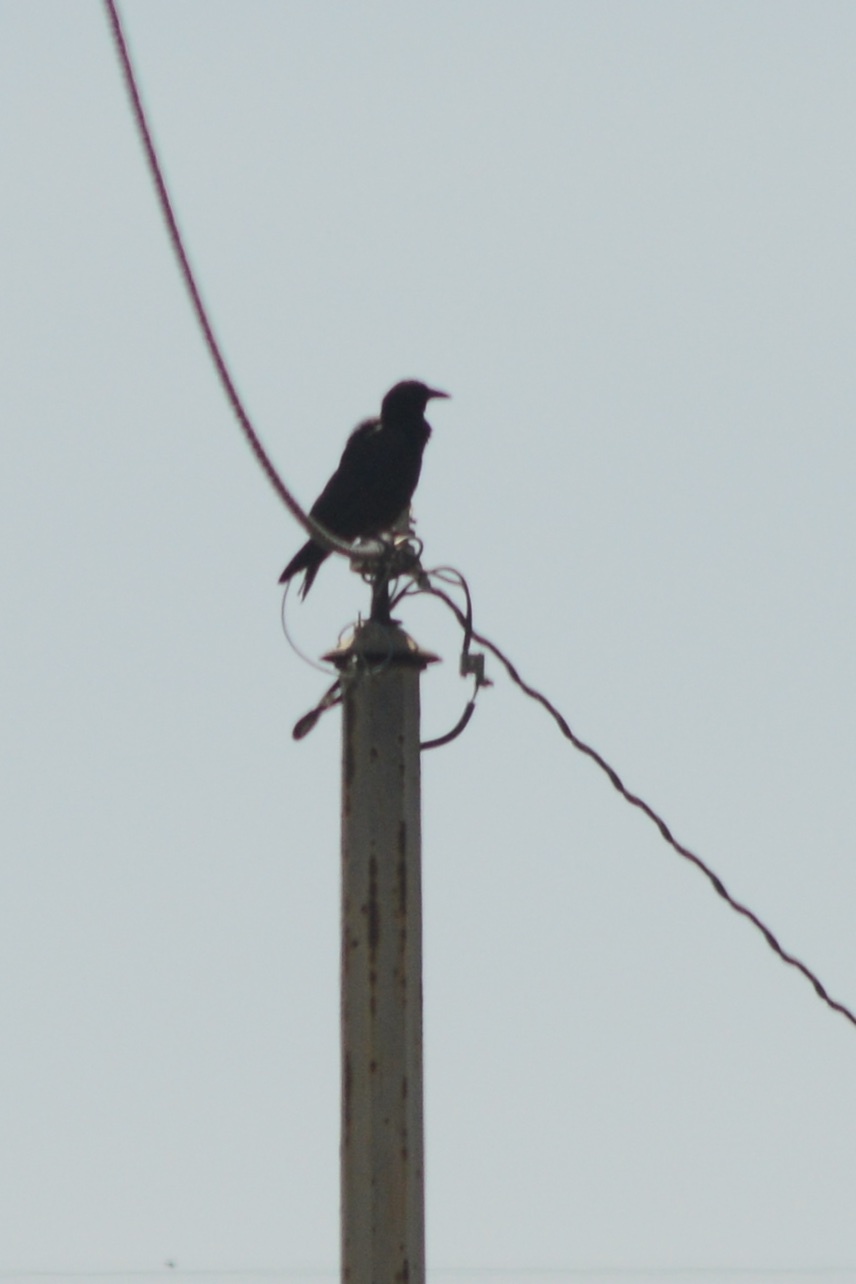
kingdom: Animalia
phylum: Chordata
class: Aves
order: Passeriformes
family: Corvidae
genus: Corvus
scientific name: Corvus brachyrhynchos
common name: American crow
